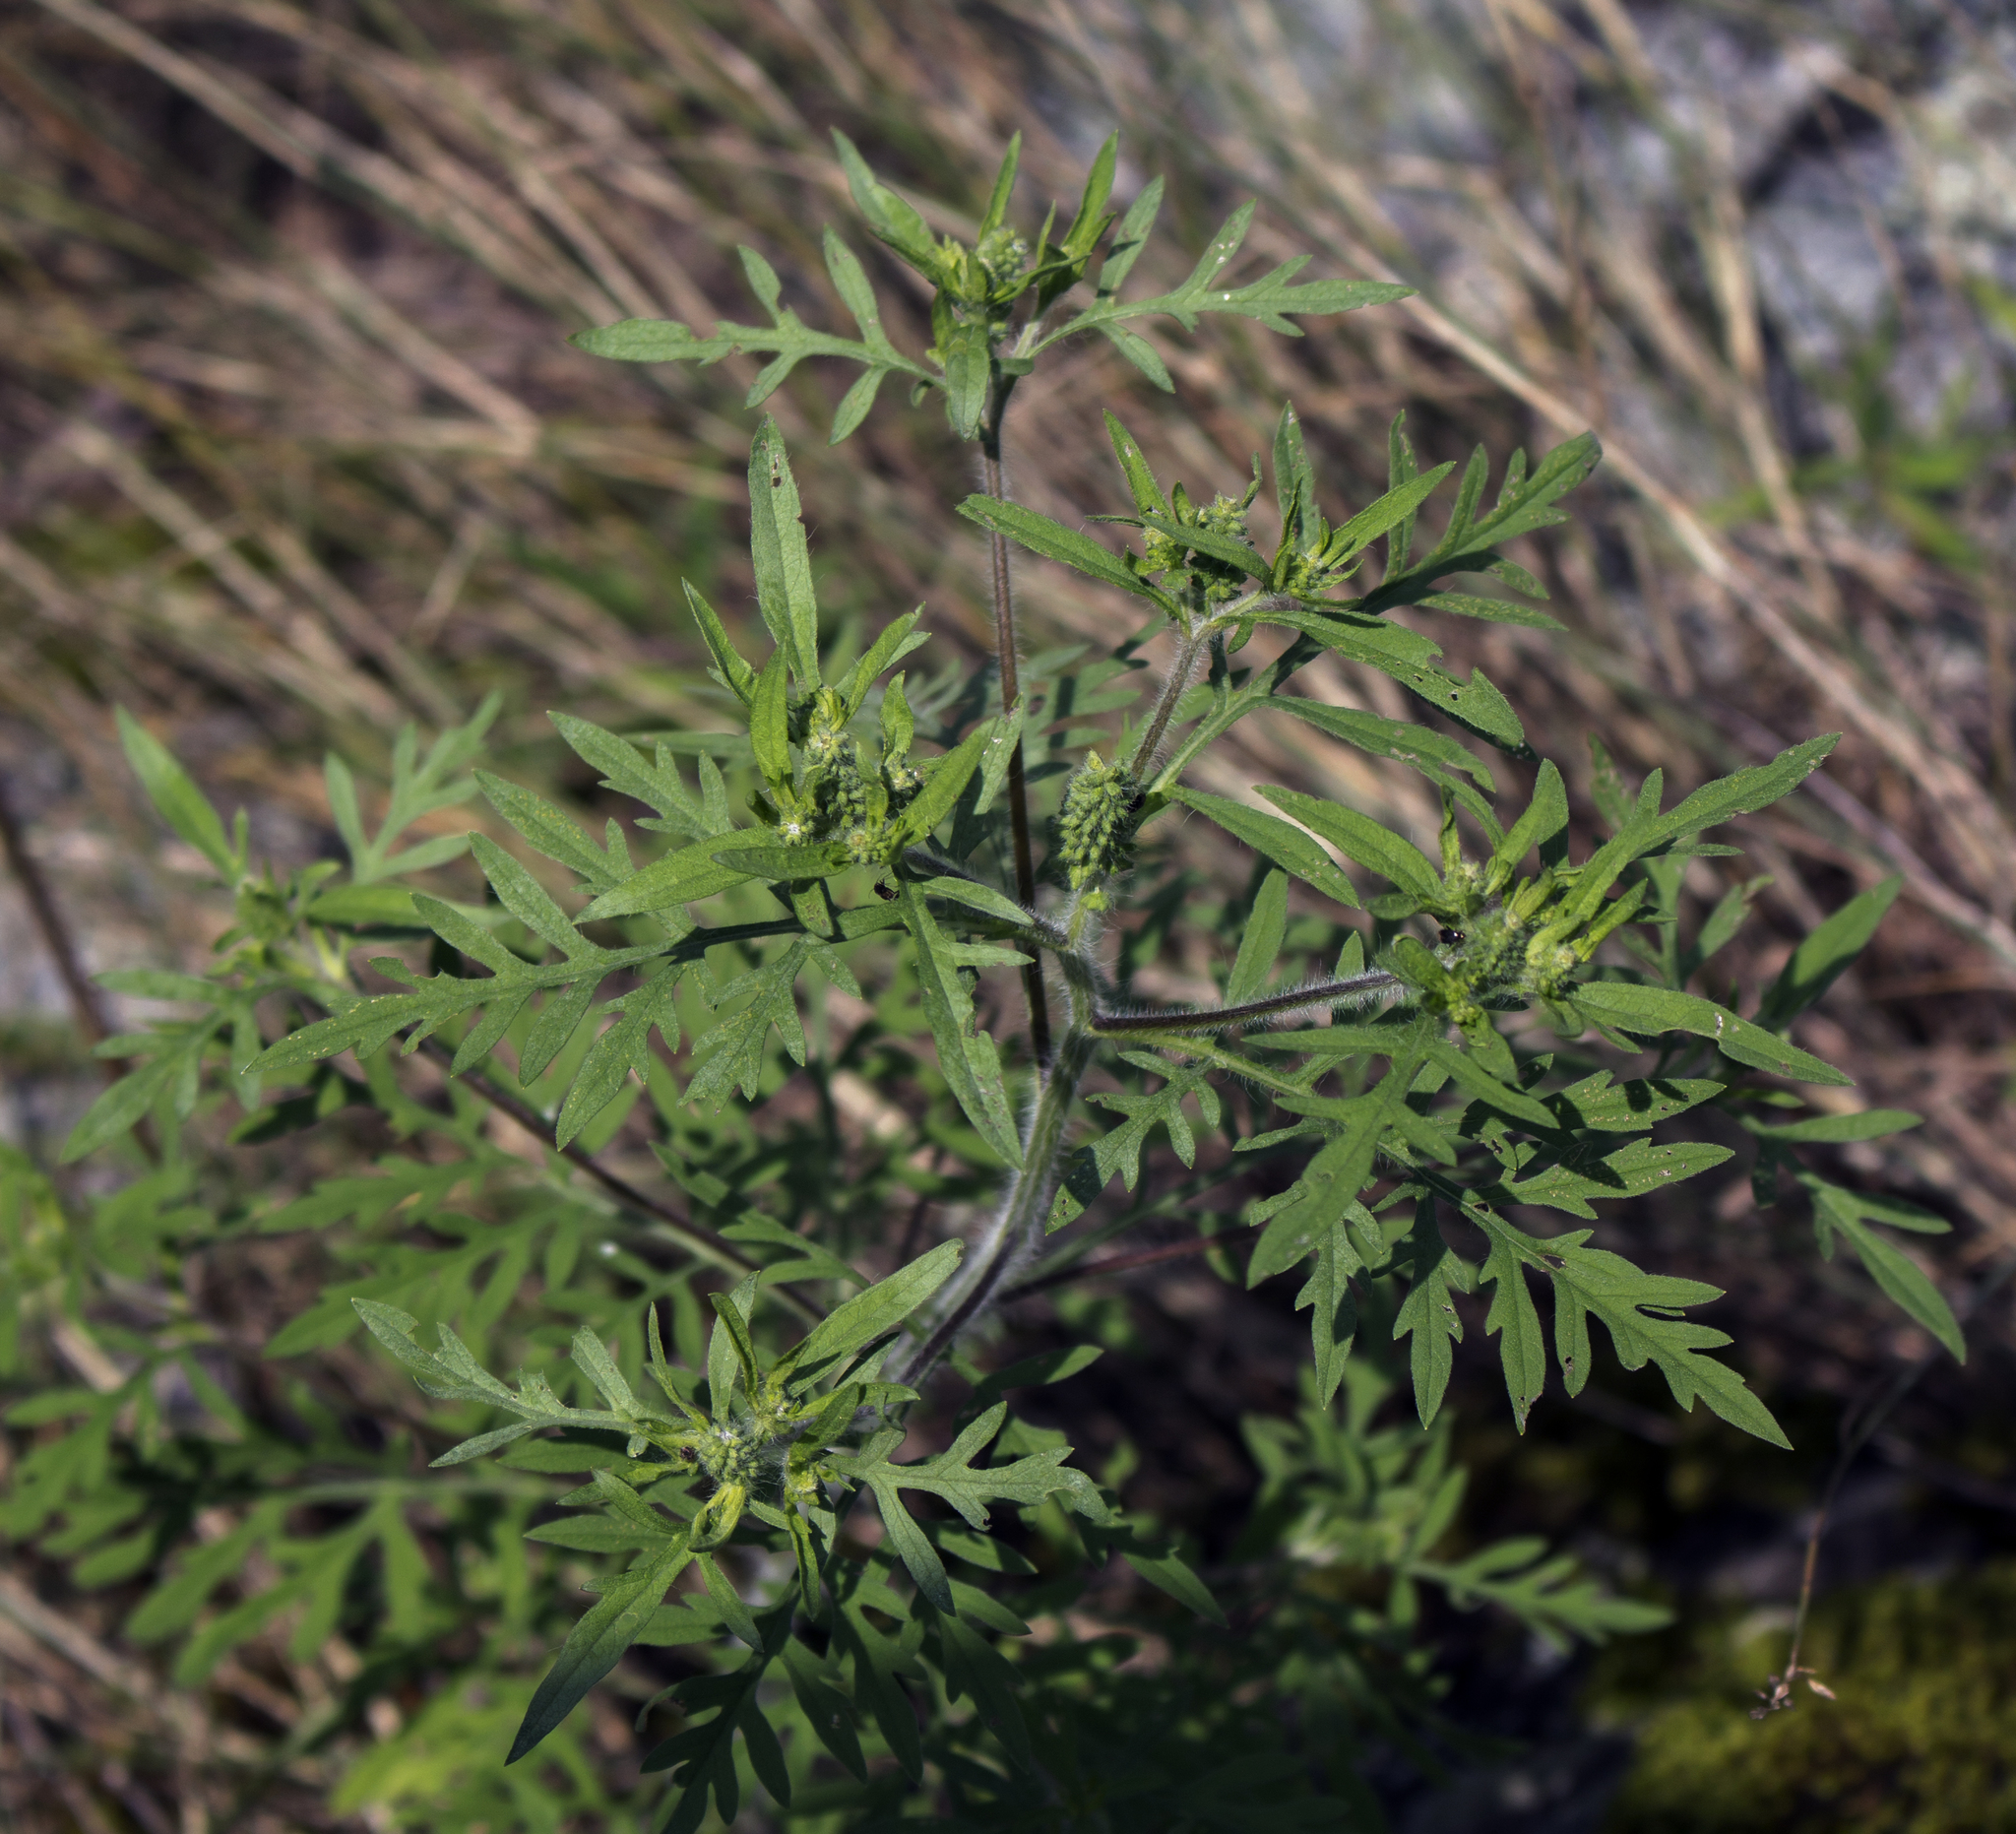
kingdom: Plantae
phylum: Tracheophyta
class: Magnoliopsida
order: Asterales
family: Asteraceae
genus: Ambrosia
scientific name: Ambrosia artemisiifolia
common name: Annual ragweed
